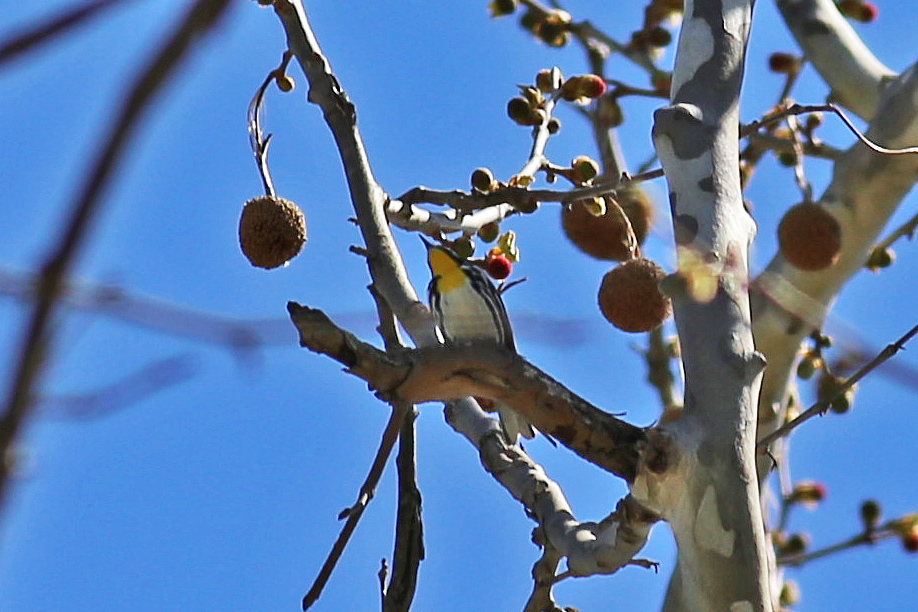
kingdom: Animalia
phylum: Chordata
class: Aves
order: Passeriformes
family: Parulidae
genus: Setophaga
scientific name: Setophaga dominica
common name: Yellow-throated warbler
